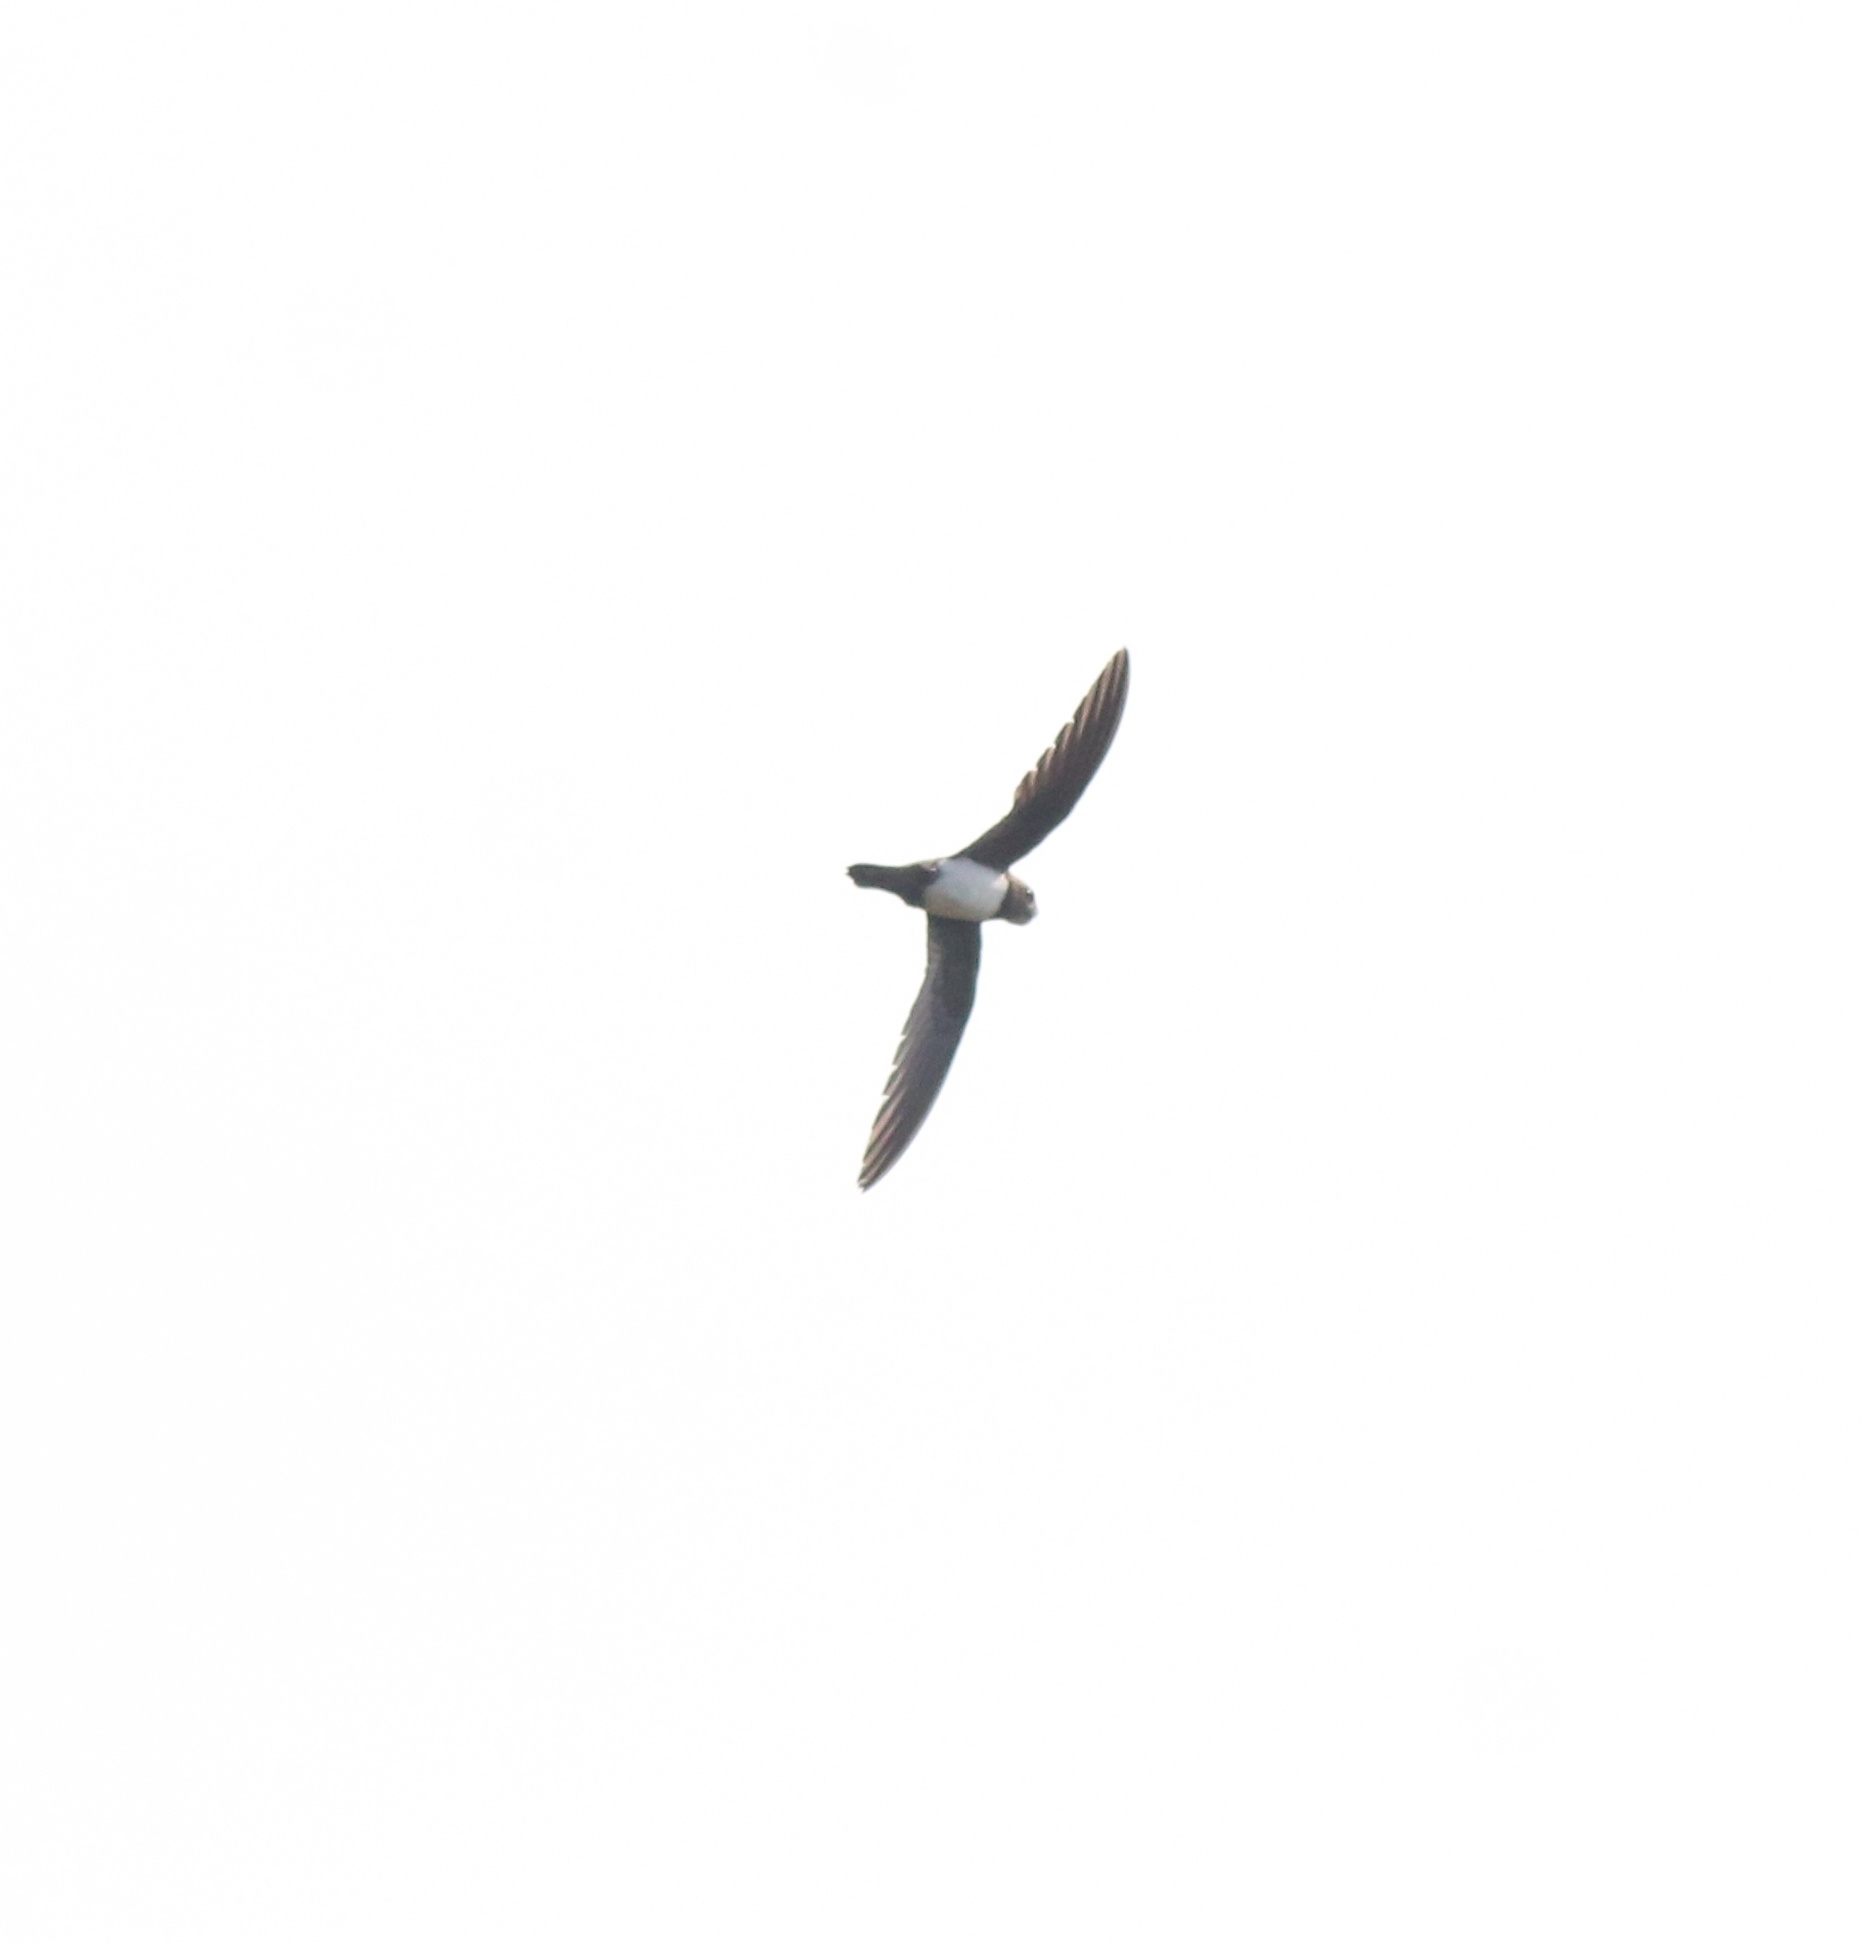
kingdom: Animalia
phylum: Chordata
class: Aves
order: Apodiformes
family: Apodidae
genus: Tachymarptis
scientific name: Tachymarptis melba
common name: Alpine swift
